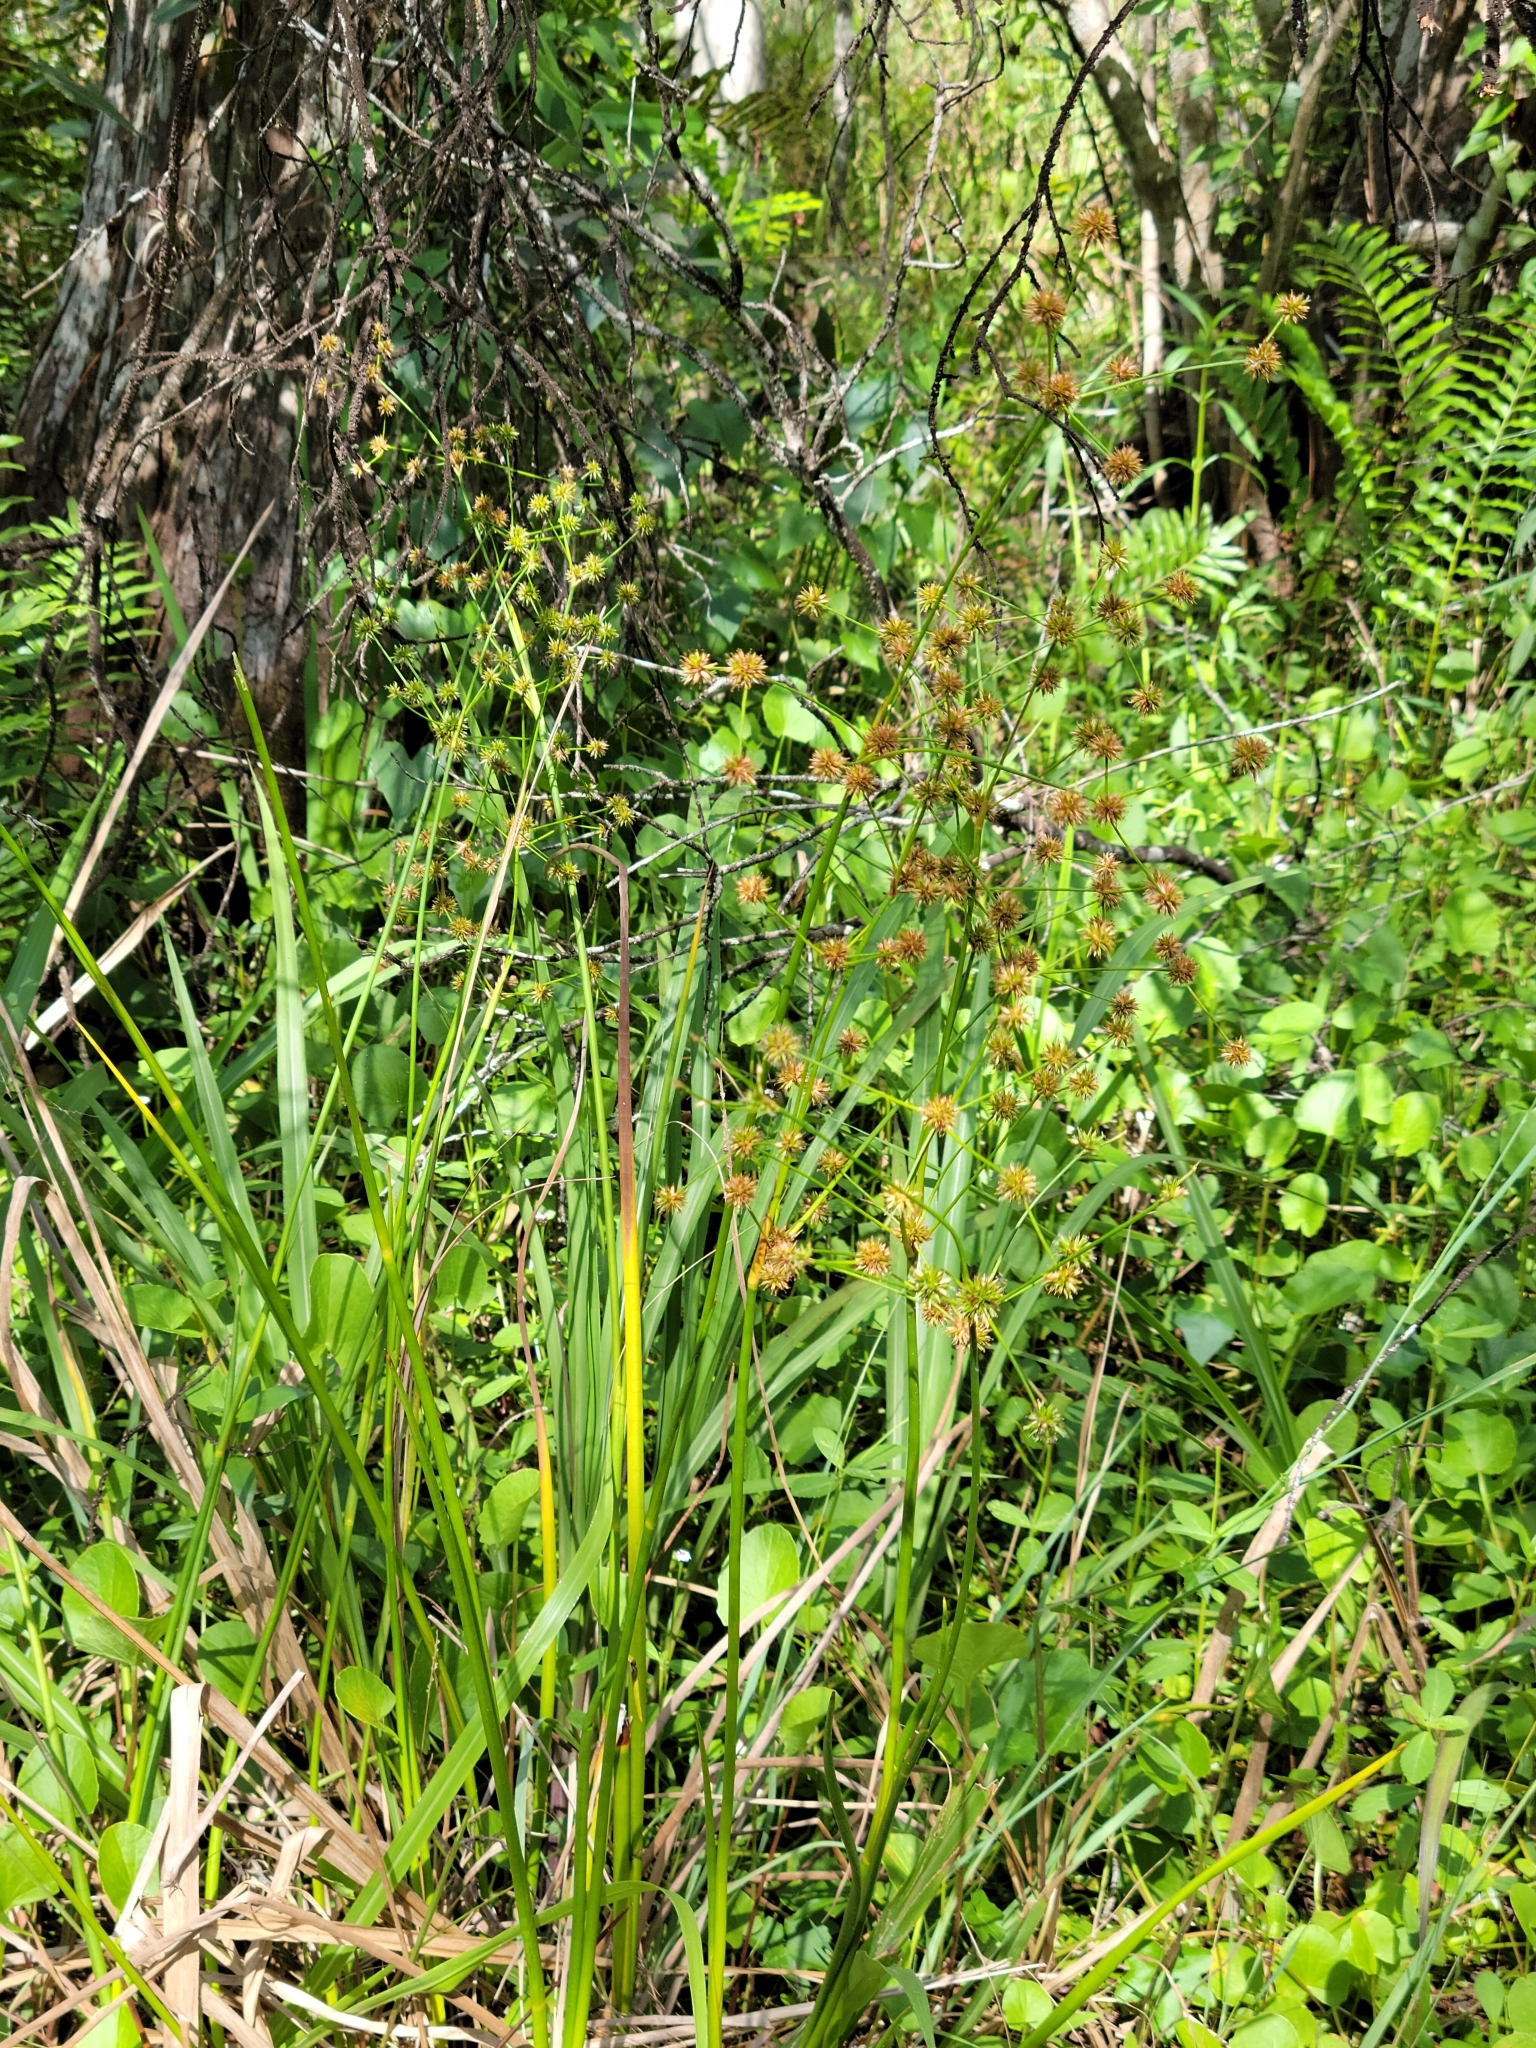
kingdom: Plantae
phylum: Tracheophyta
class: Liliopsida
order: Poales
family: Juncaceae
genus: Juncus
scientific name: Juncus paludosus
